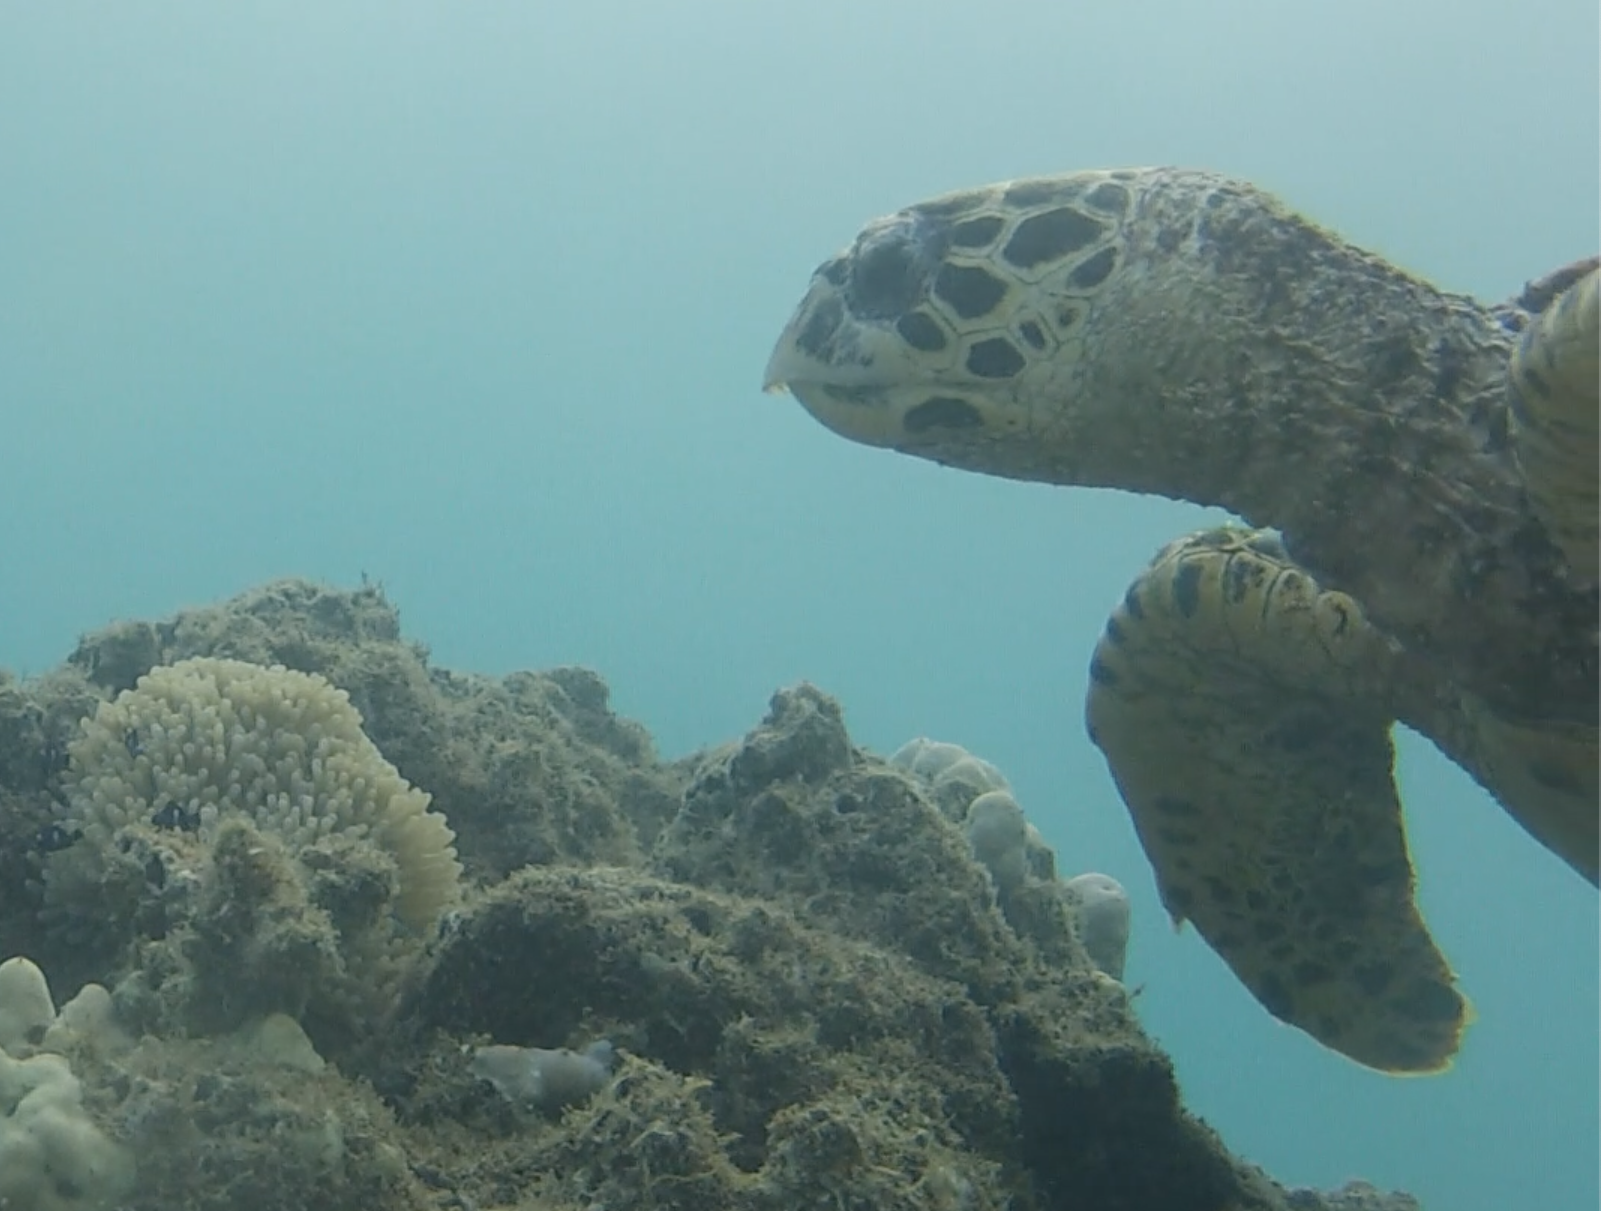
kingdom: Animalia
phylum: Chordata
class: Testudines
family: Cheloniidae
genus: Eretmochelys
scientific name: Eretmochelys imbricata
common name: Hawksbill turtle
